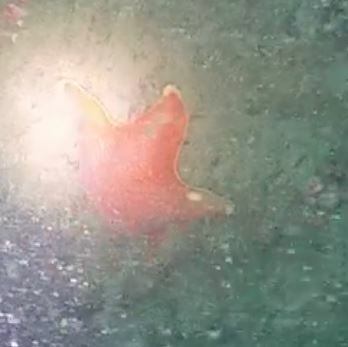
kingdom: Animalia
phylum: Echinodermata
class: Asteroidea
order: Valvatida
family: Asterinidae
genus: Patiria
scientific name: Patiria miniata
